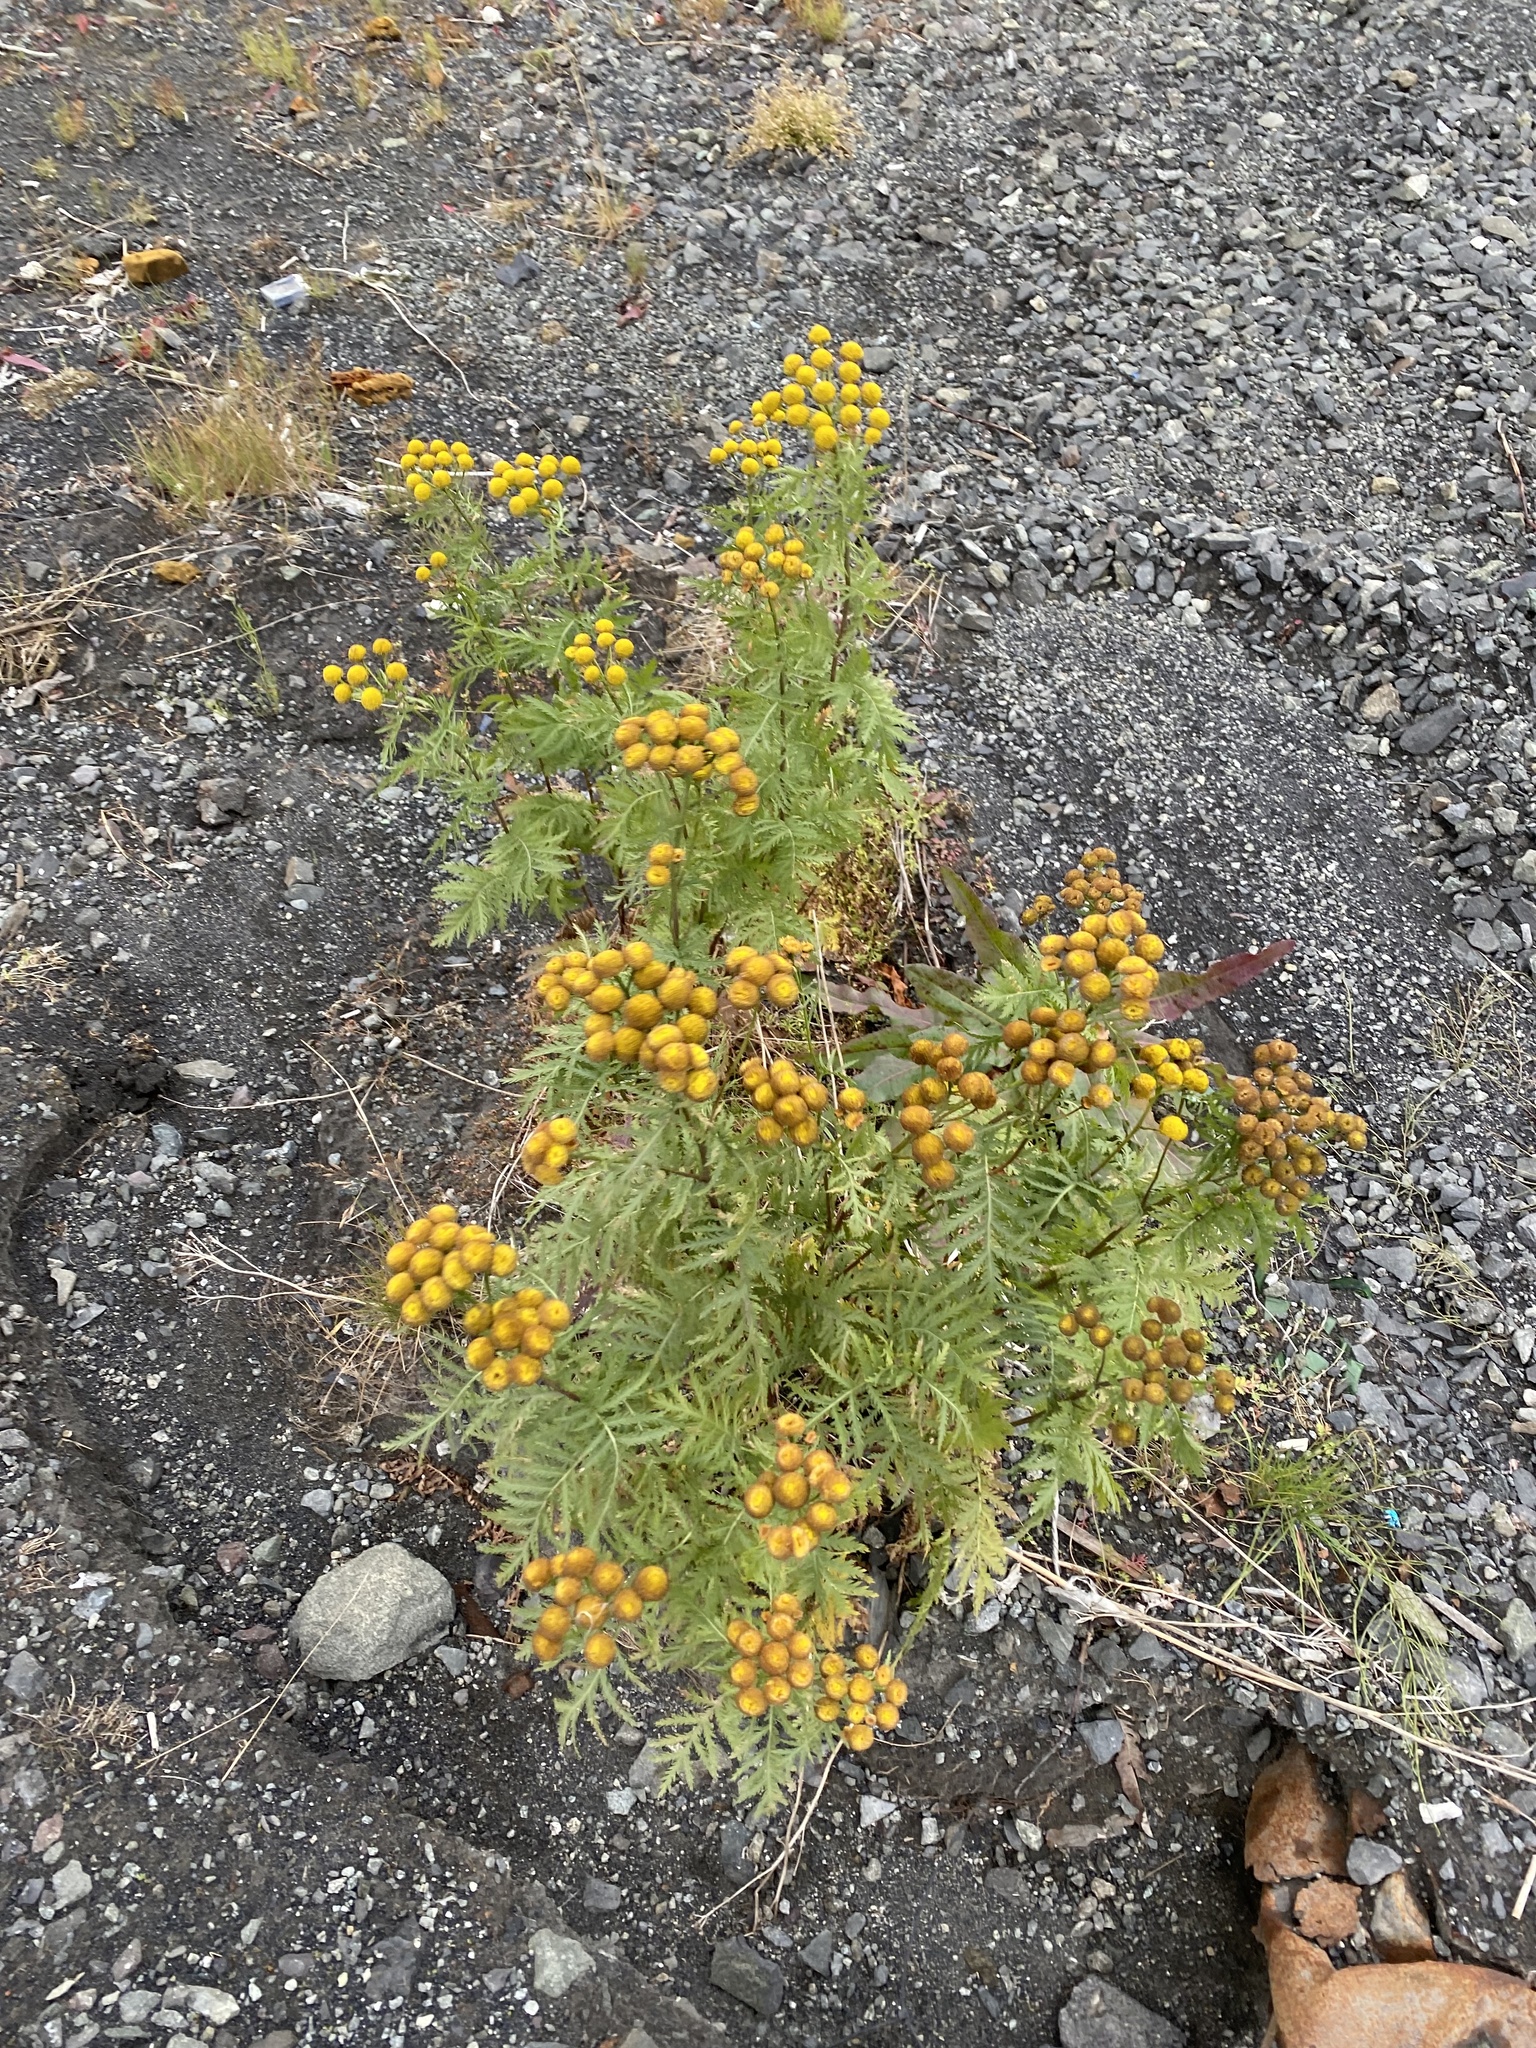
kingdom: Plantae
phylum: Tracheophyta
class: Magnoliopsida
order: Asterales
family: Asteraceae
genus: Tanacetum
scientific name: Tanacetum vulgare
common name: Common tansy
